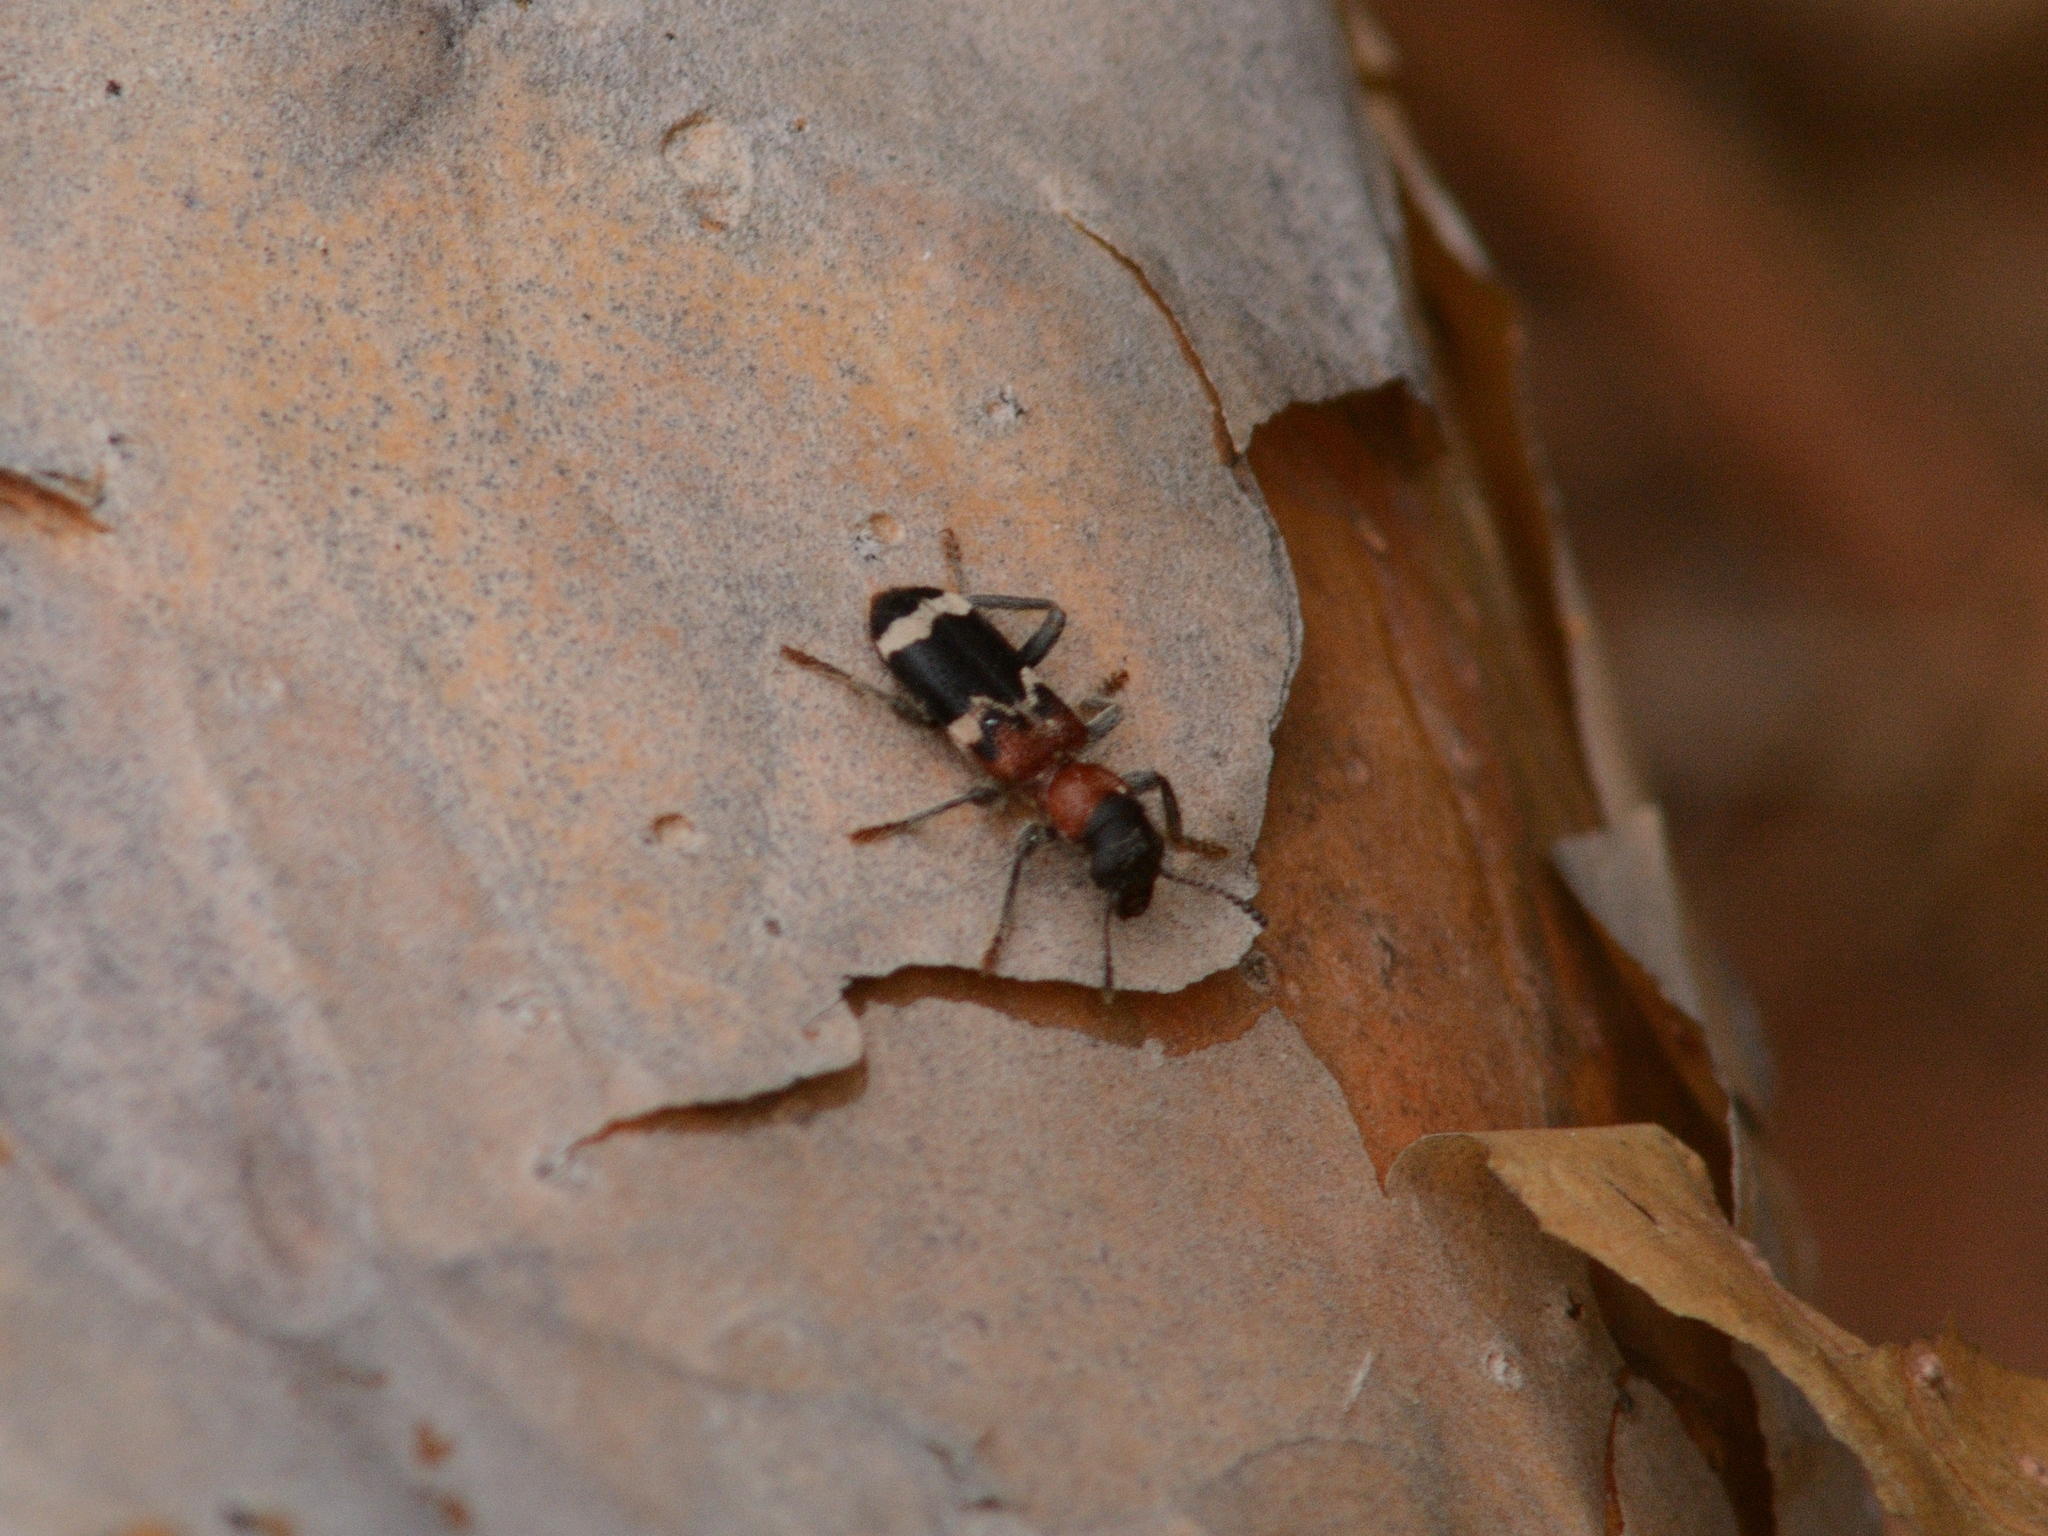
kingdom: Animalia
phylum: Arthropoda
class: Insecta
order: Coleoptera
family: Cleridae
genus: Thanasimus
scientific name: Thanasimus formicarius
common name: Ant beetle
